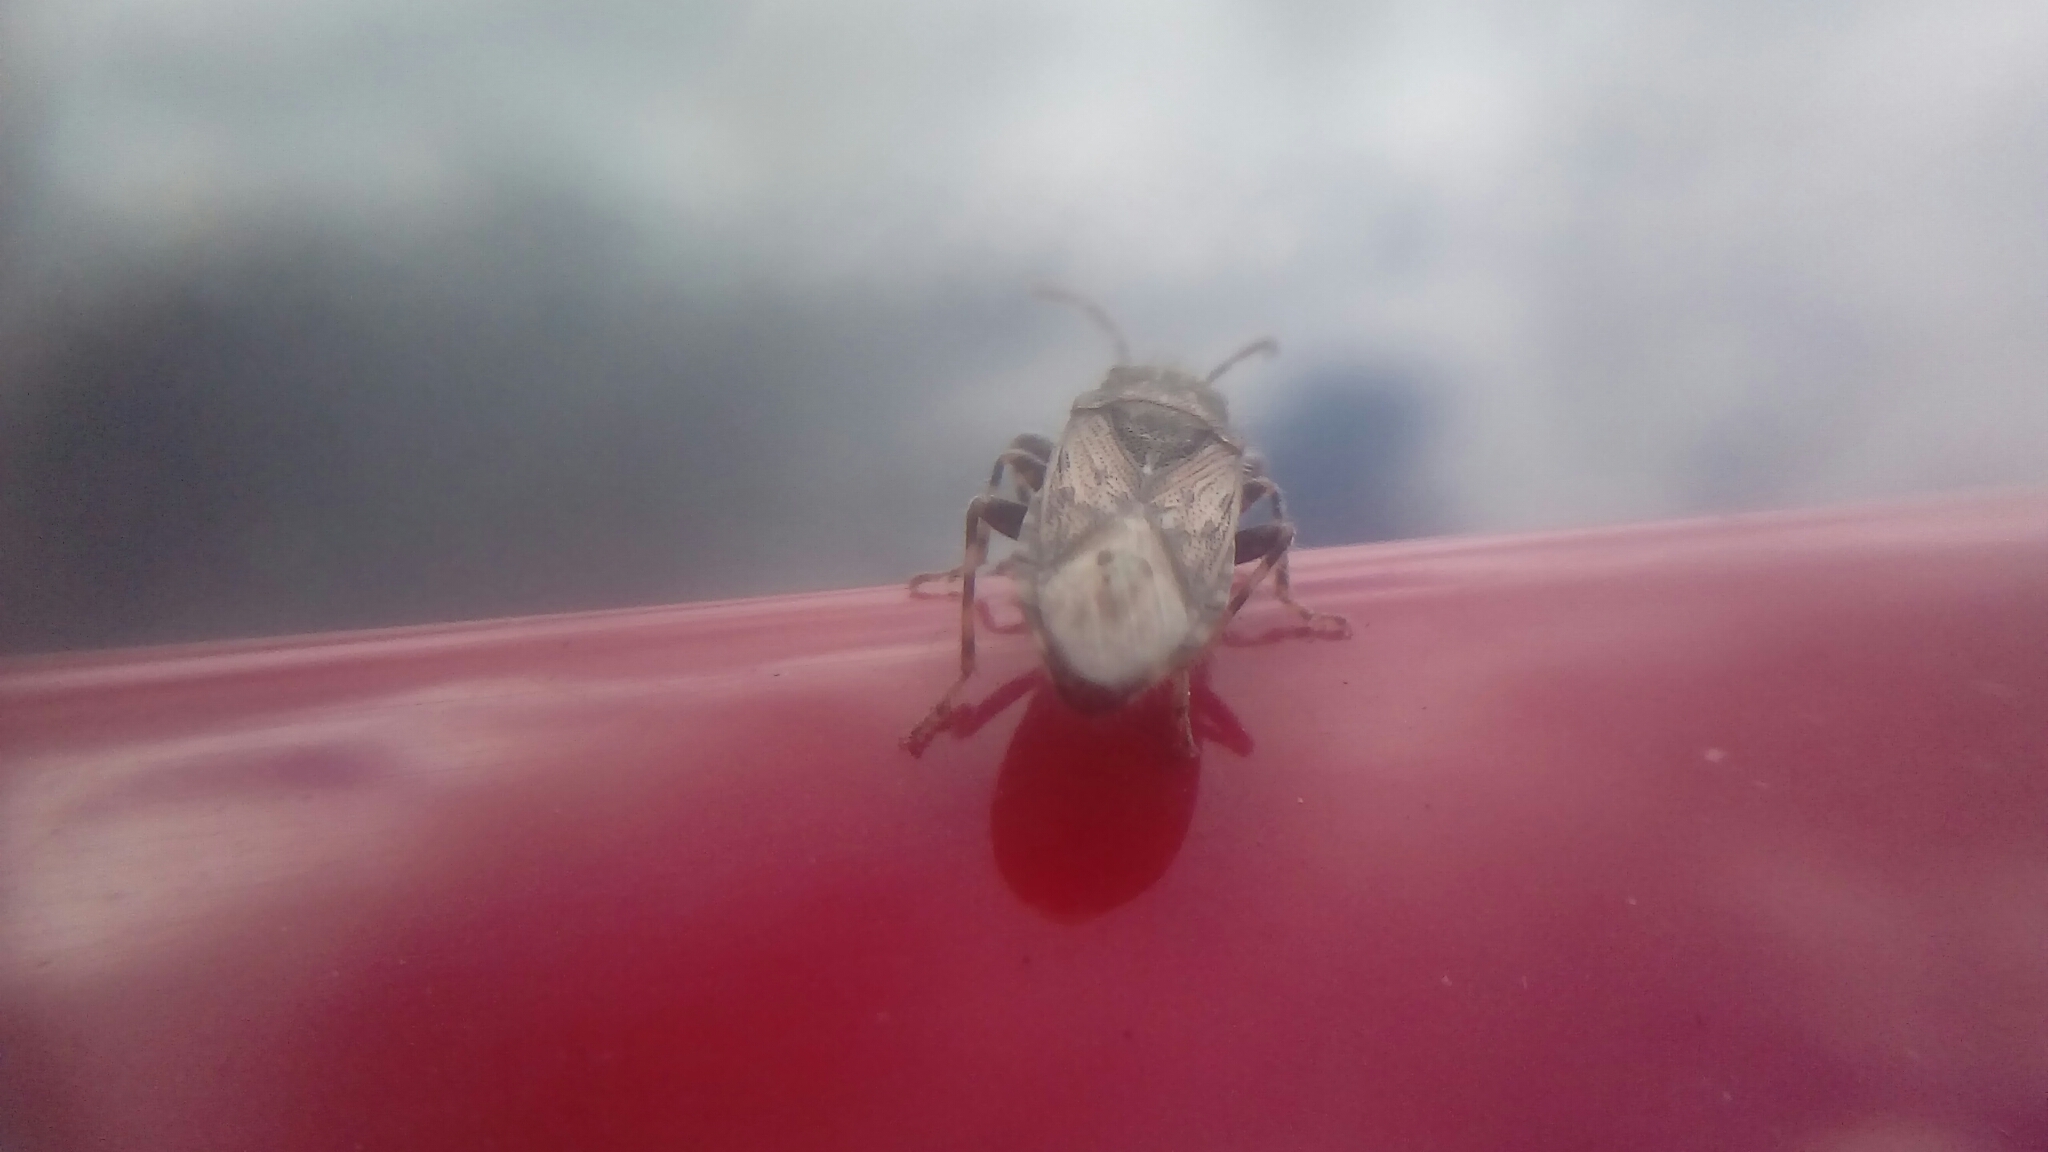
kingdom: Animalia
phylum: Arthropoda
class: Insecta
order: Hemiptera
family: Heterogastridae
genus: Heterogaster
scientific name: Heterogaster urticae
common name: Seed bug
